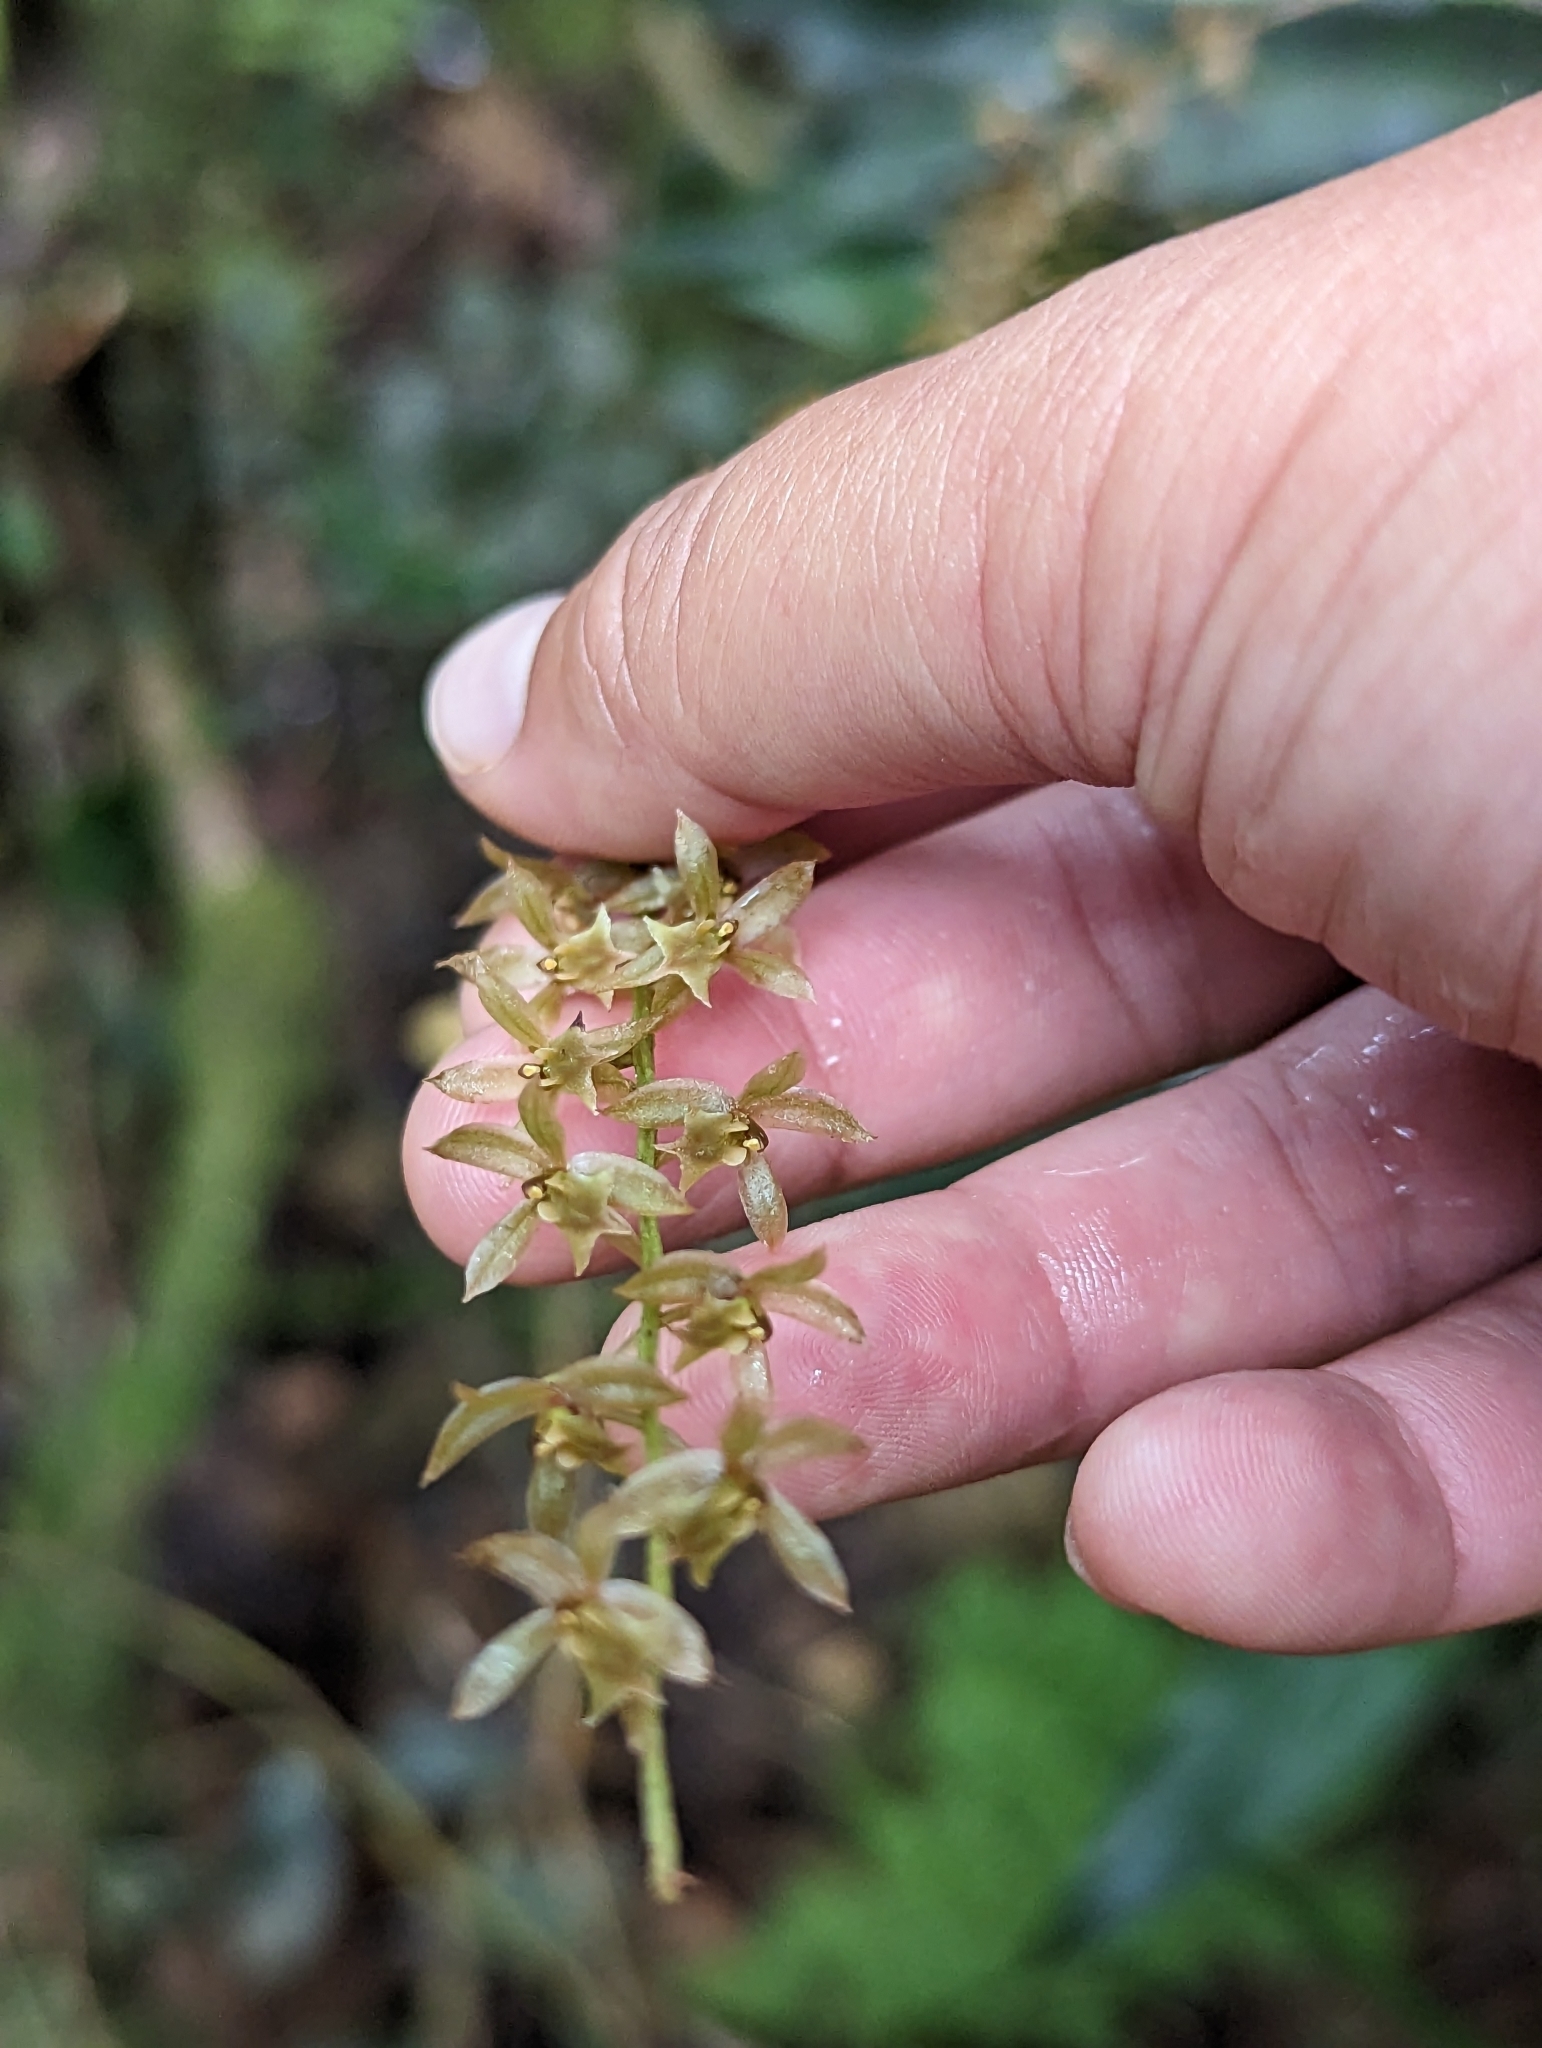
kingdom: Plantae
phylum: Tracheophyta
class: Liliopsida
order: Asparagales
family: Orchidaceae
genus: Coelogyne
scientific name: Coelogyne
